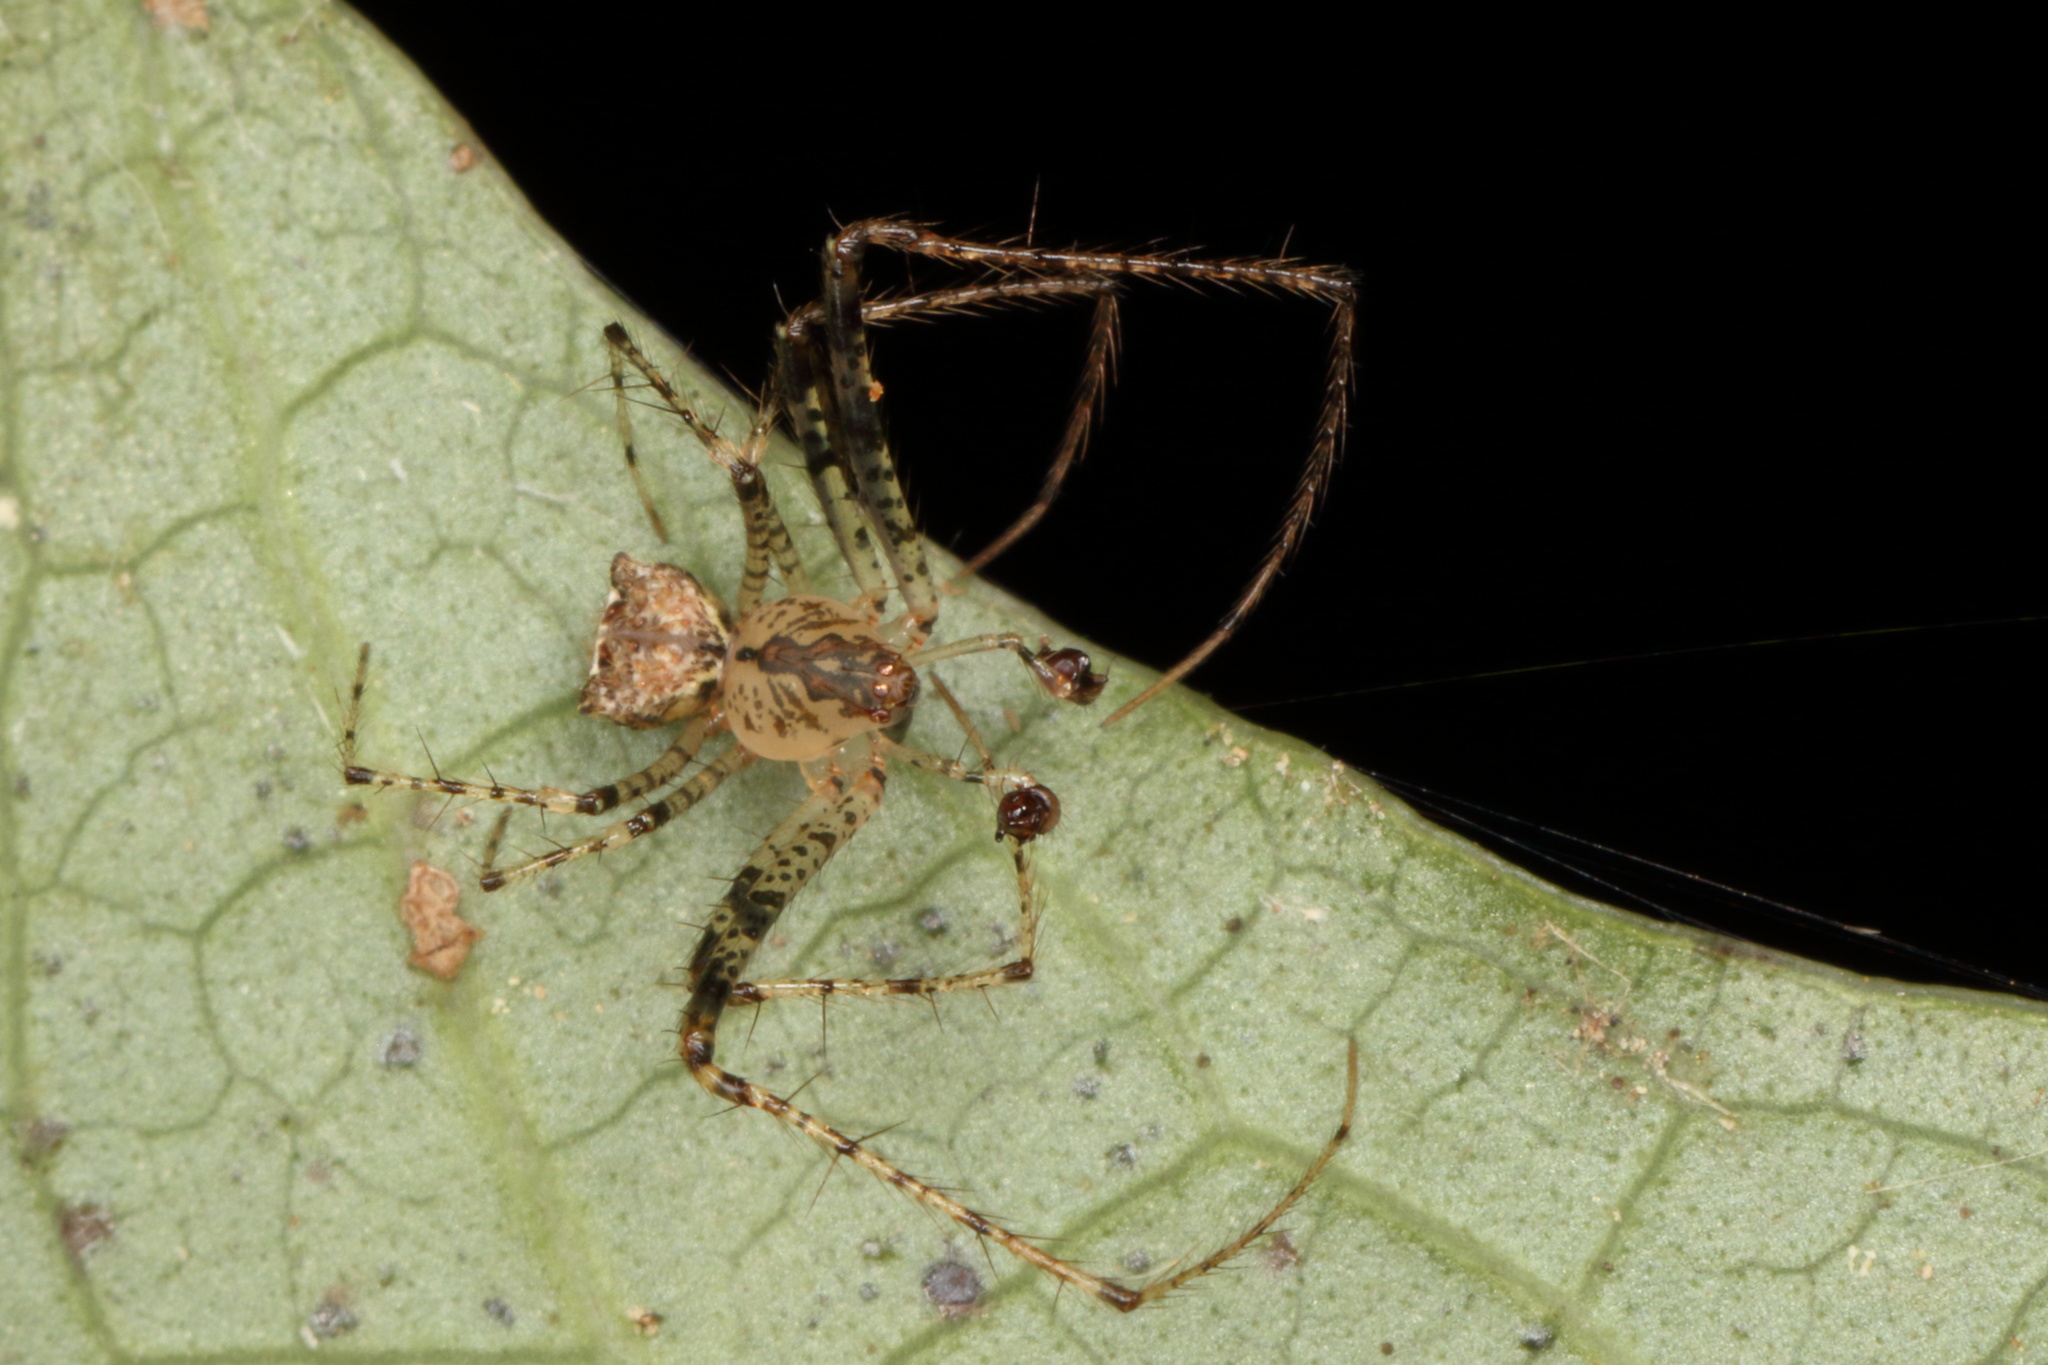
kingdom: Animalia
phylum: Arthropoda
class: Arachnida
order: Araneae
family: Mimetidae
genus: Australomimetus
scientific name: Australomimetus sennio
